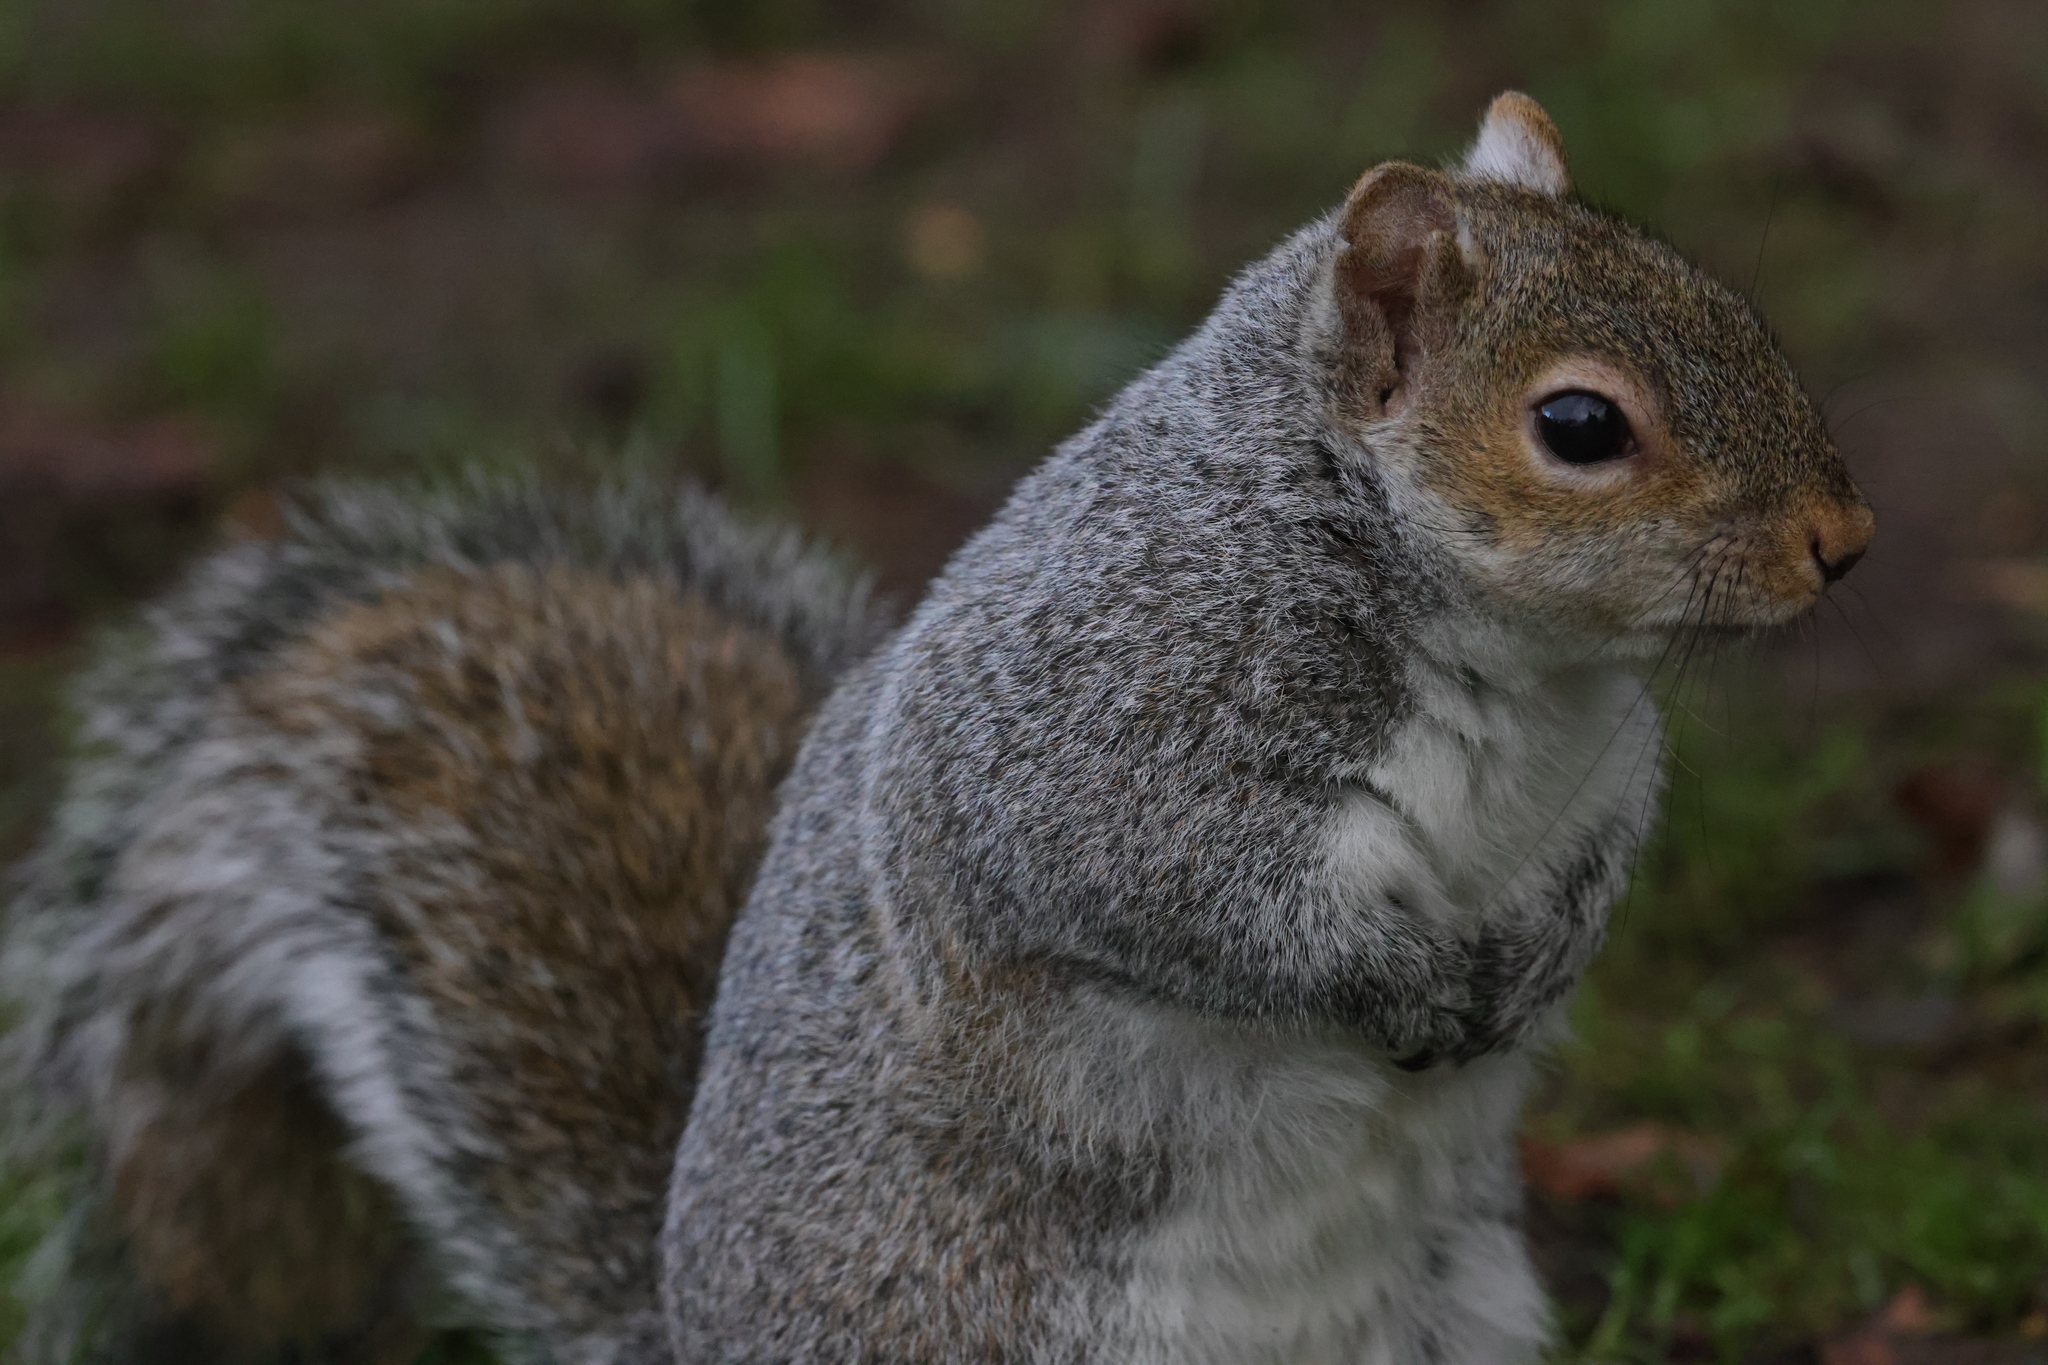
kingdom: Animalia
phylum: Chordata
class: Mammalia
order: Rodentia
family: Sciuridae
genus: Sciurus
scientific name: Sciurus carolinensis
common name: Eastern gray squirrel
